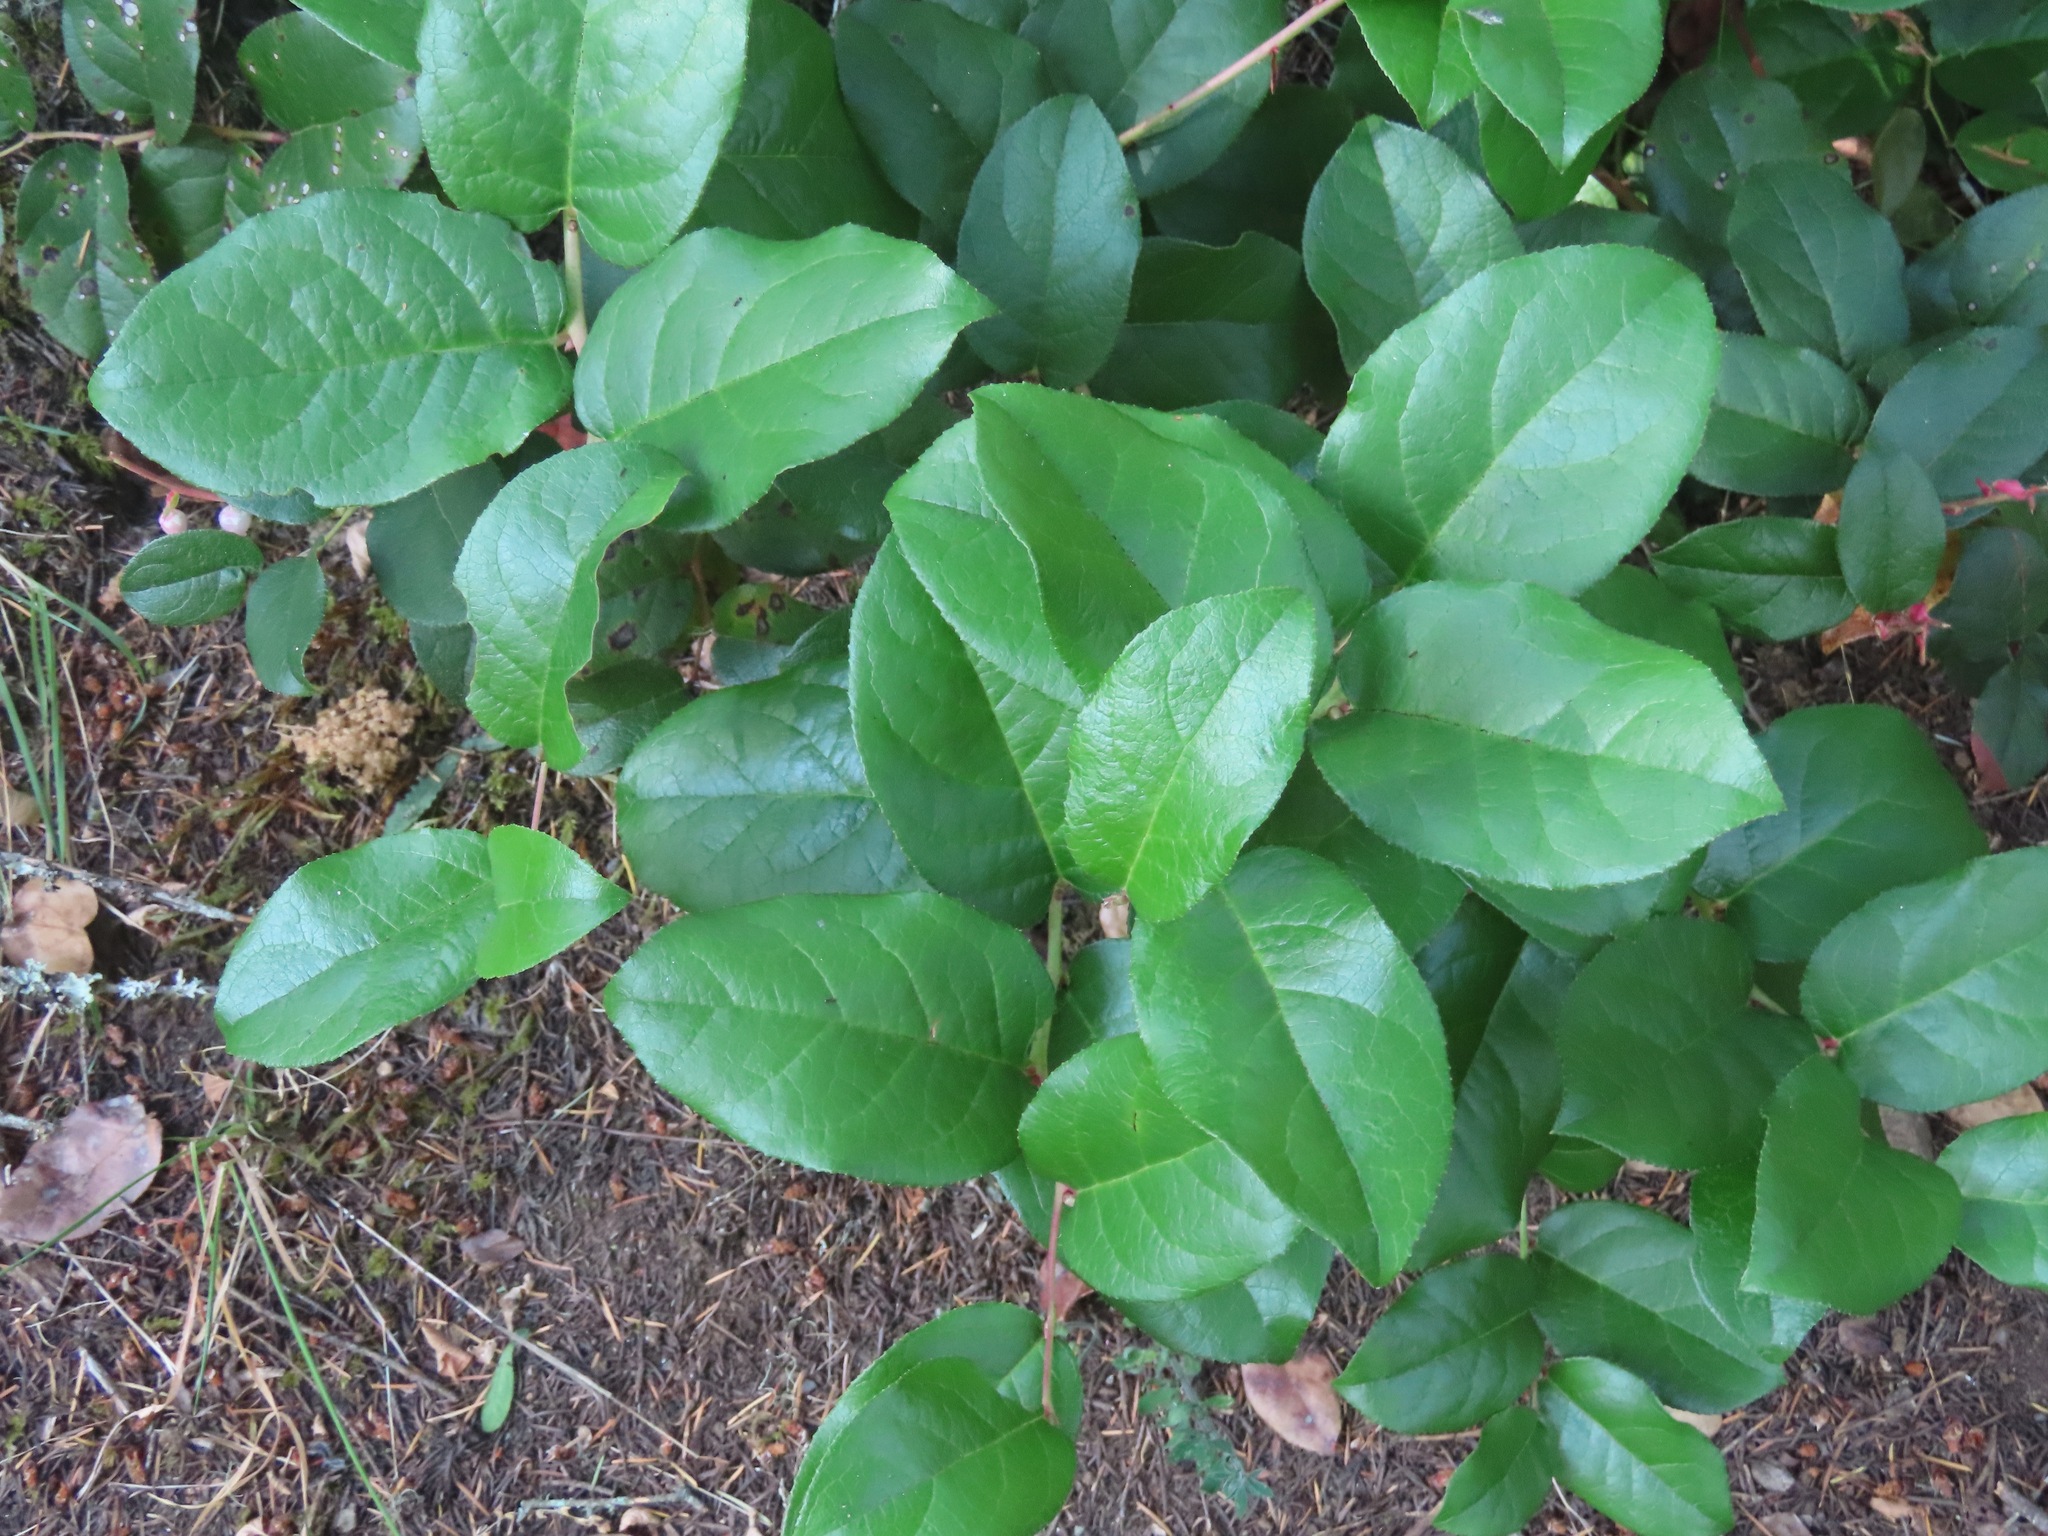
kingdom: Plantae
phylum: Tracheophyta
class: Magnoliopsida
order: Ericales
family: Ericaceae
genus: Gaultheria
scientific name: Gaultheria shallon
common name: Shallon
